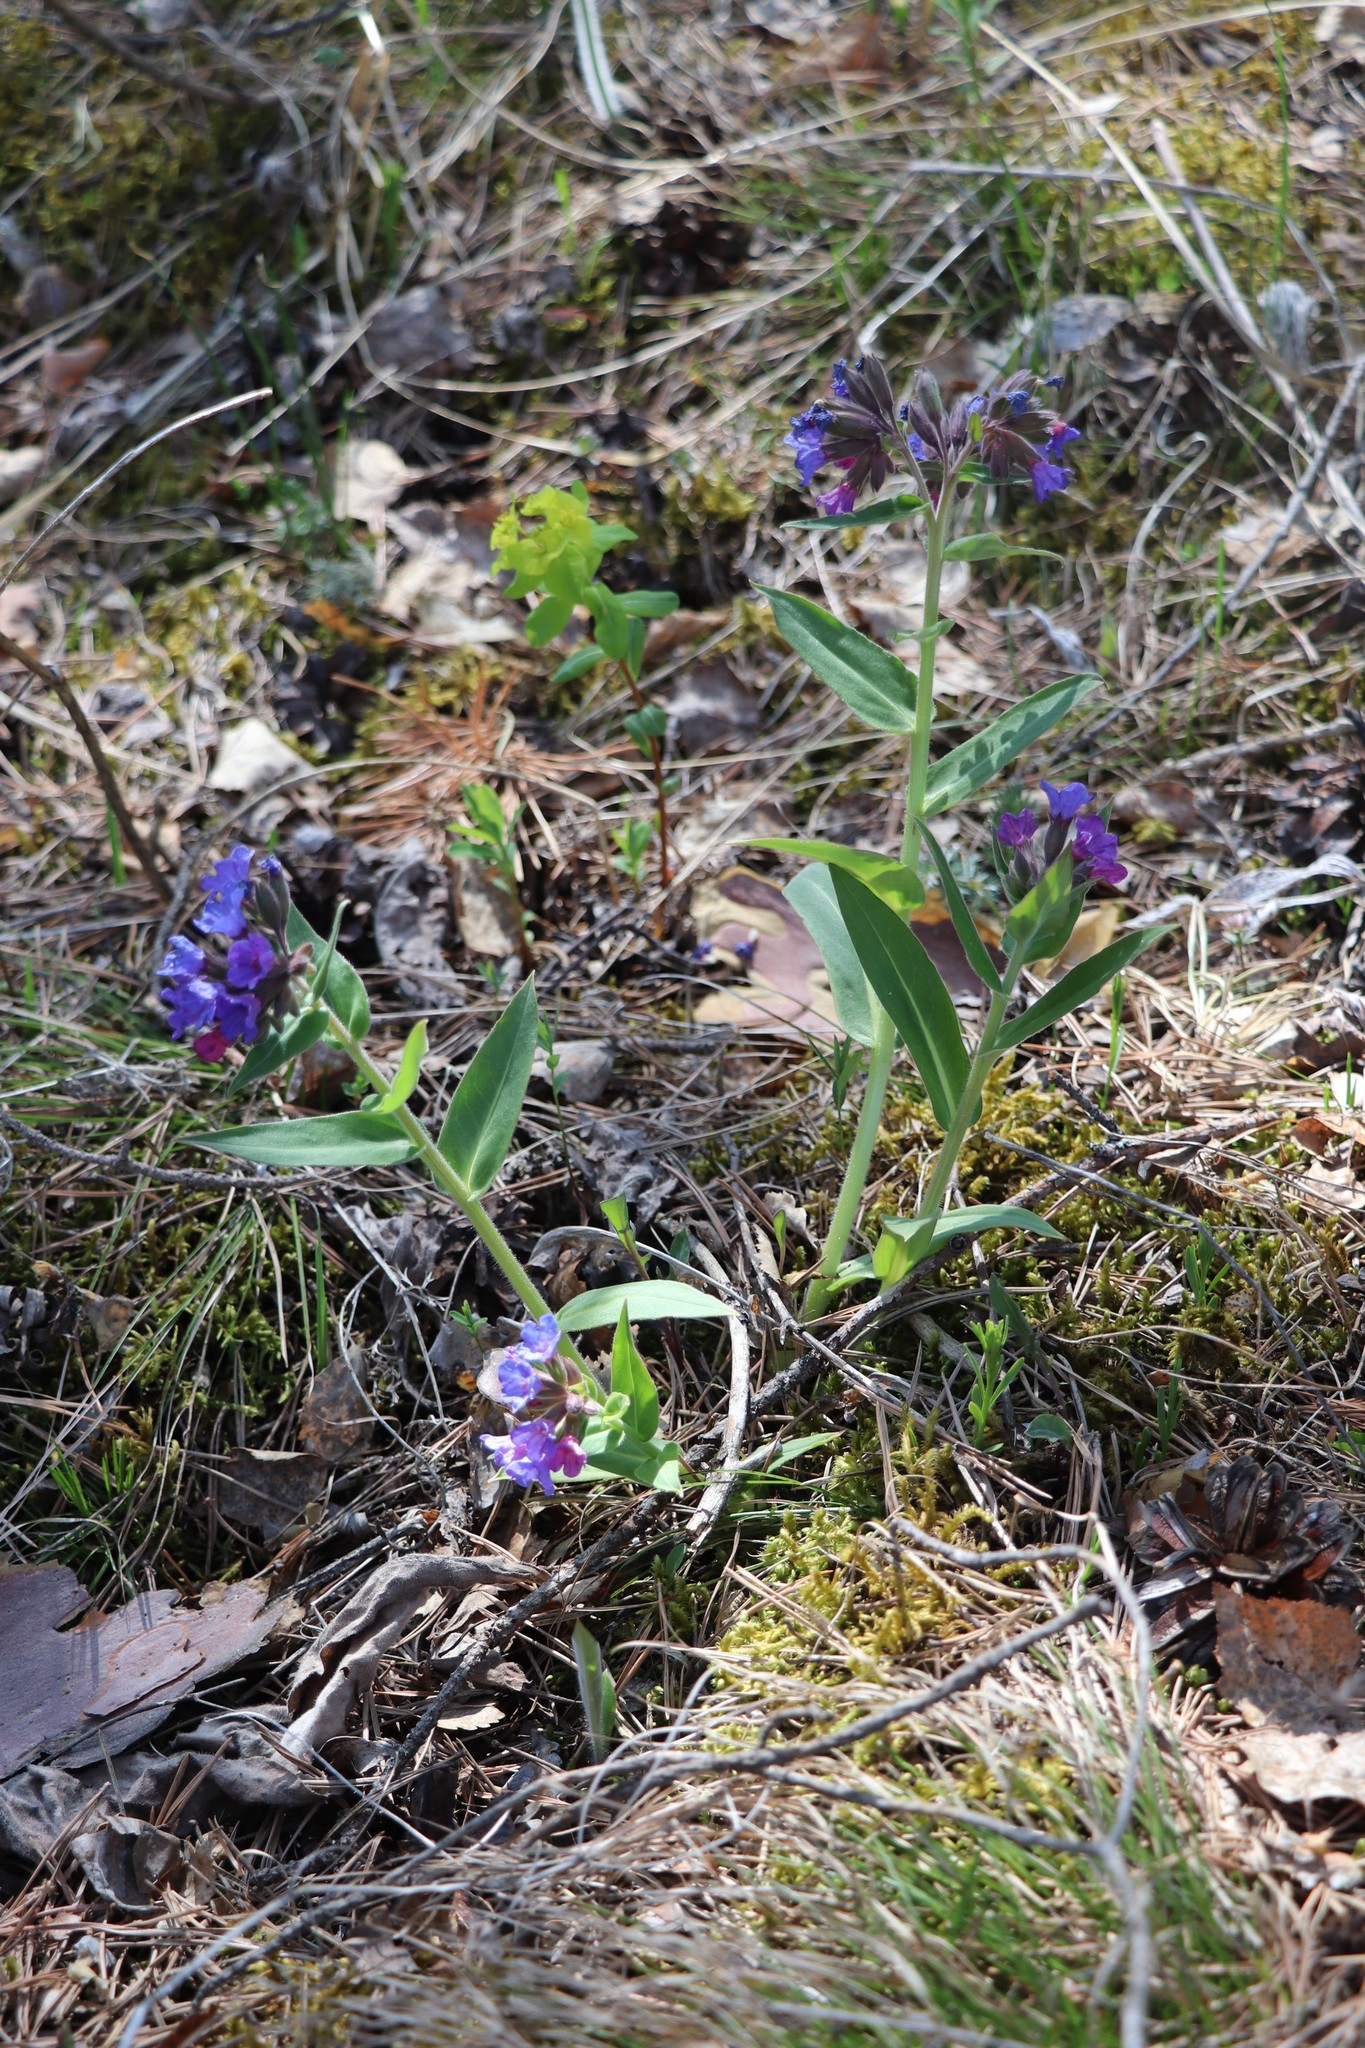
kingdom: Plantae
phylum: Tracheophyta
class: Magnoliopsida
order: Boraginales
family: Boraginaceae
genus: Pulmonaria
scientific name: Pulmonaria mollis
